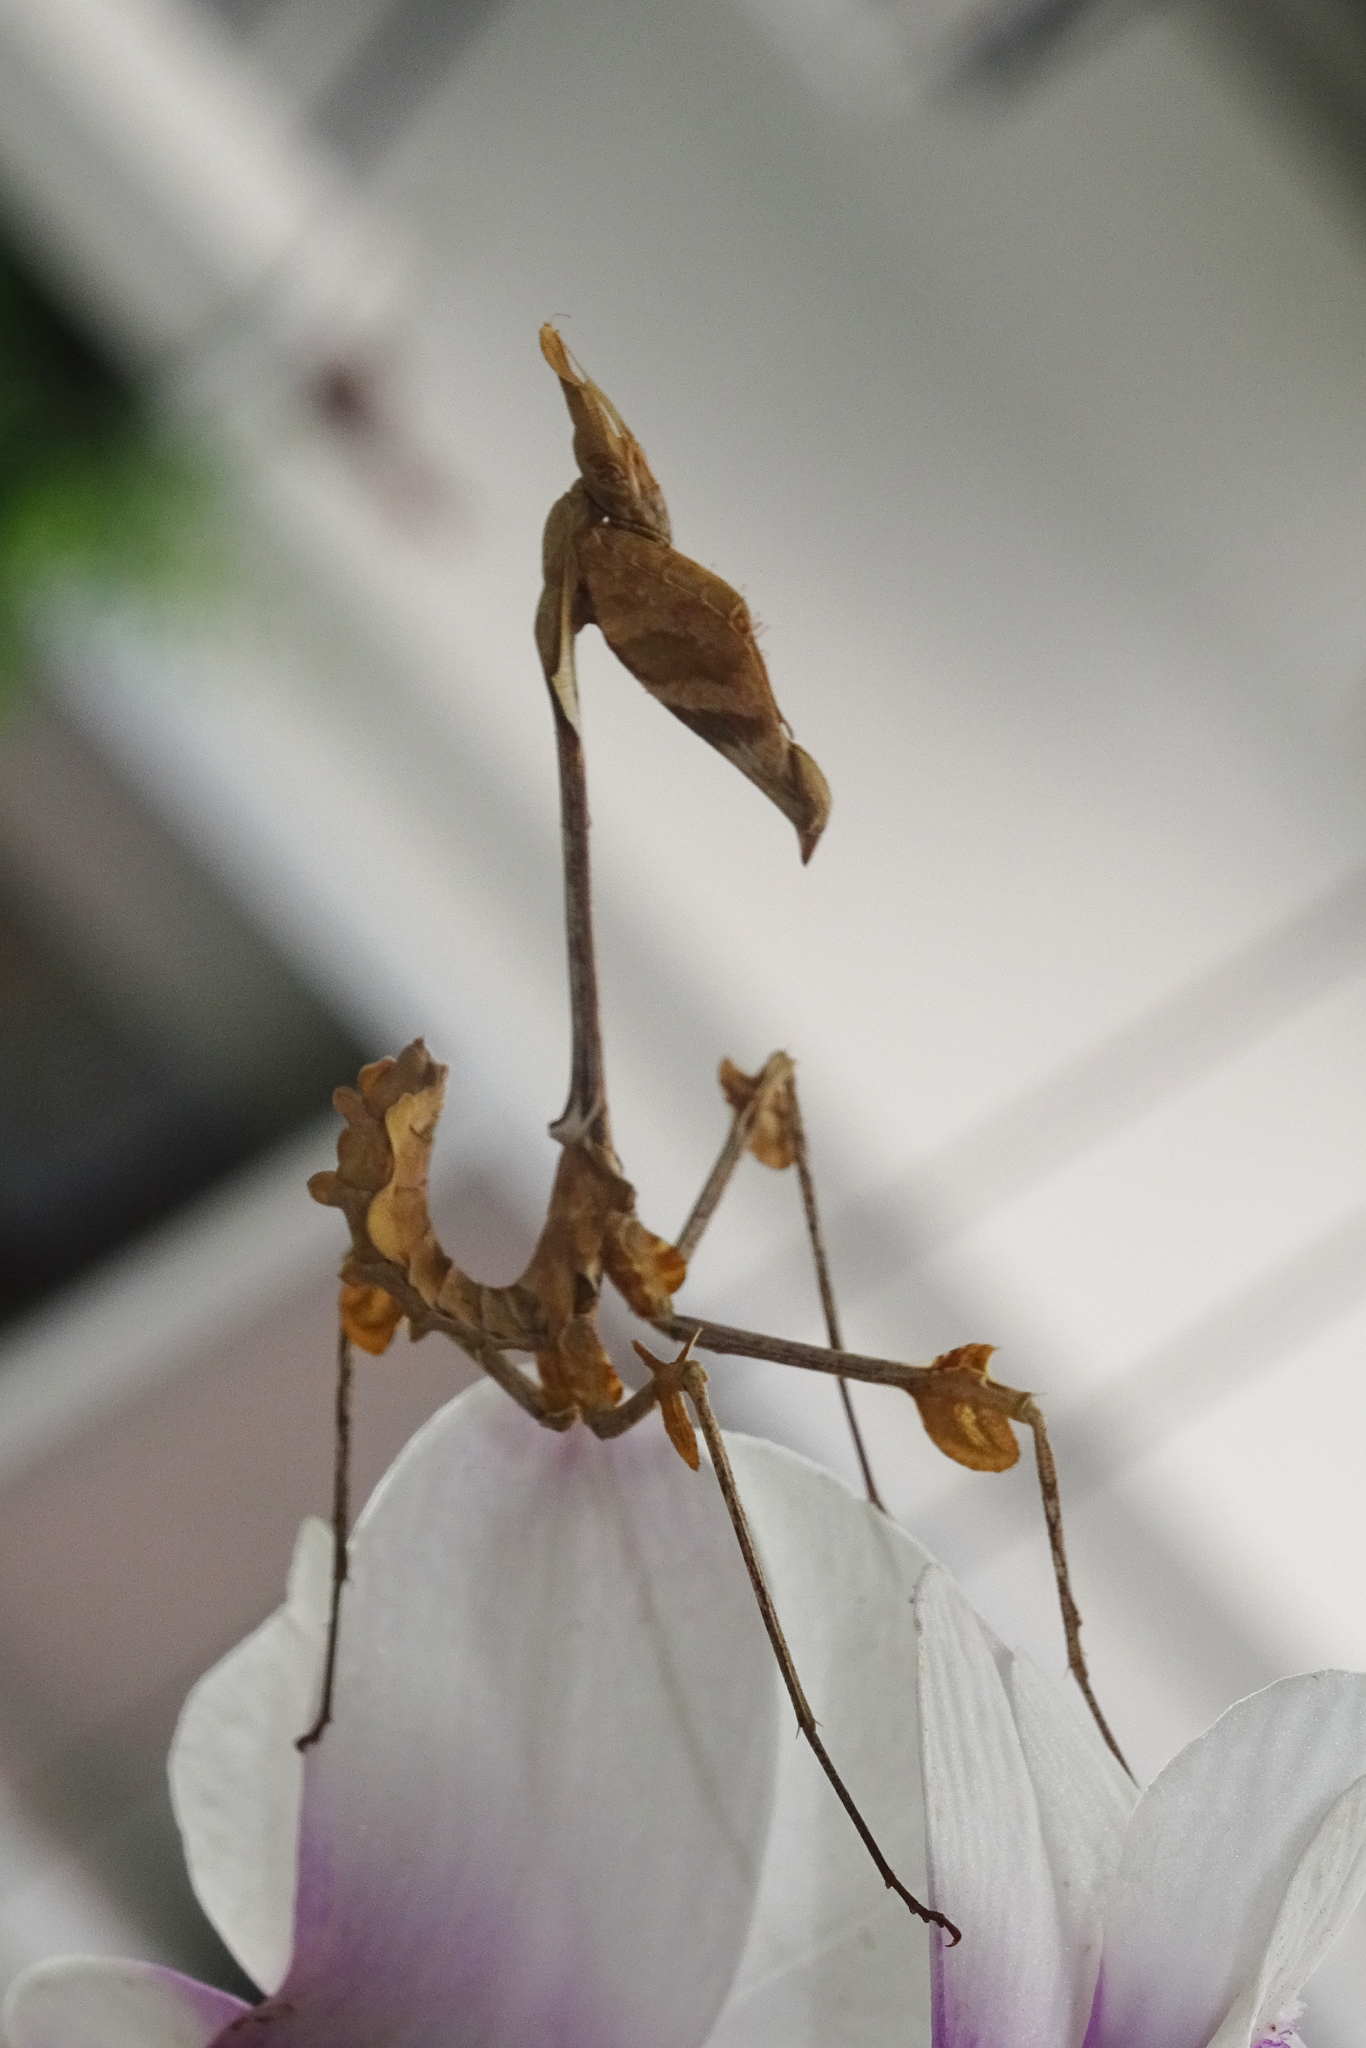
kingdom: Animalia
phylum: Arthropoda
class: Insecta
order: Mantodea
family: Empusidae
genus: Gongylus
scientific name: Gongylus gongylodes
